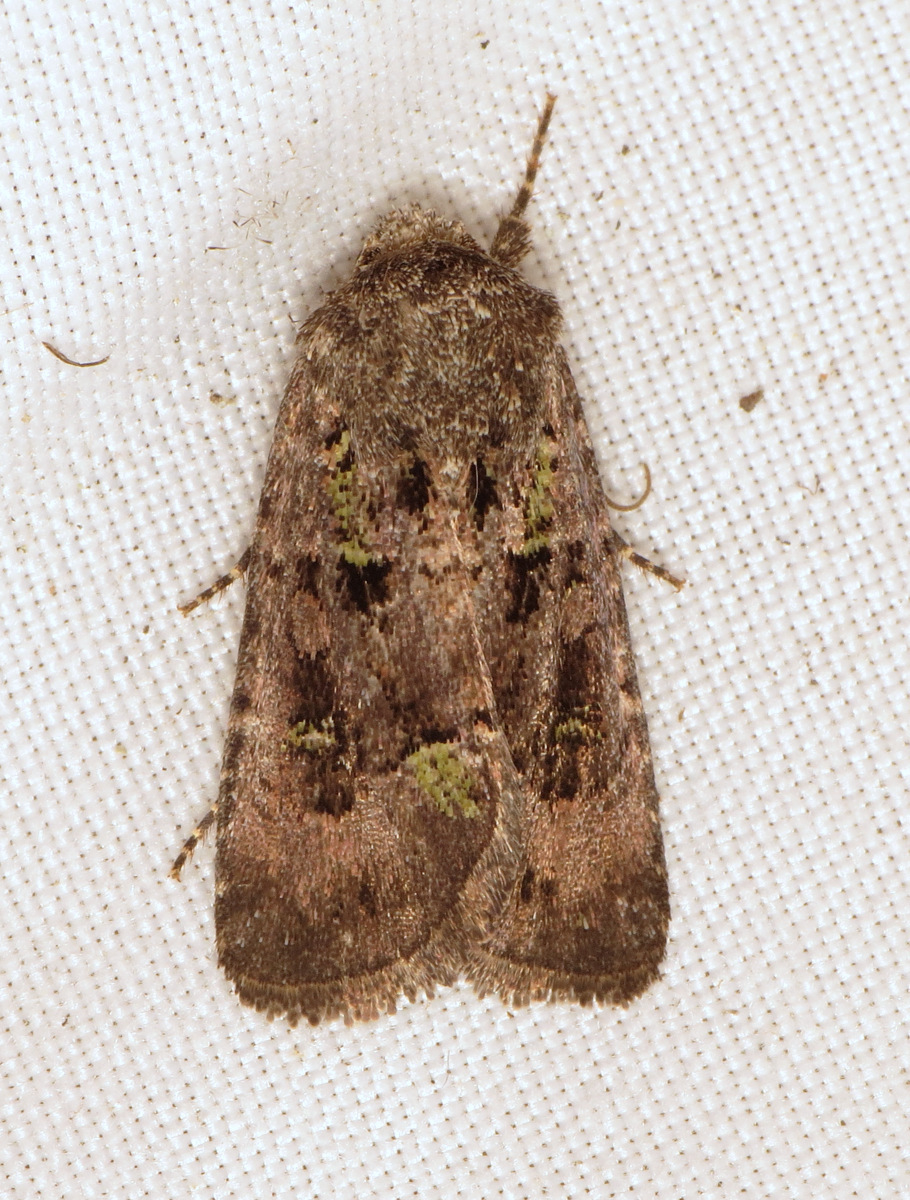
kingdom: Animalia
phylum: Arthropoda
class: Insecta
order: Lepidoptera
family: Noctuidae
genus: Lacinipolia
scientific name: Lacinipolia renigera
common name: Kidney-spotted minor
